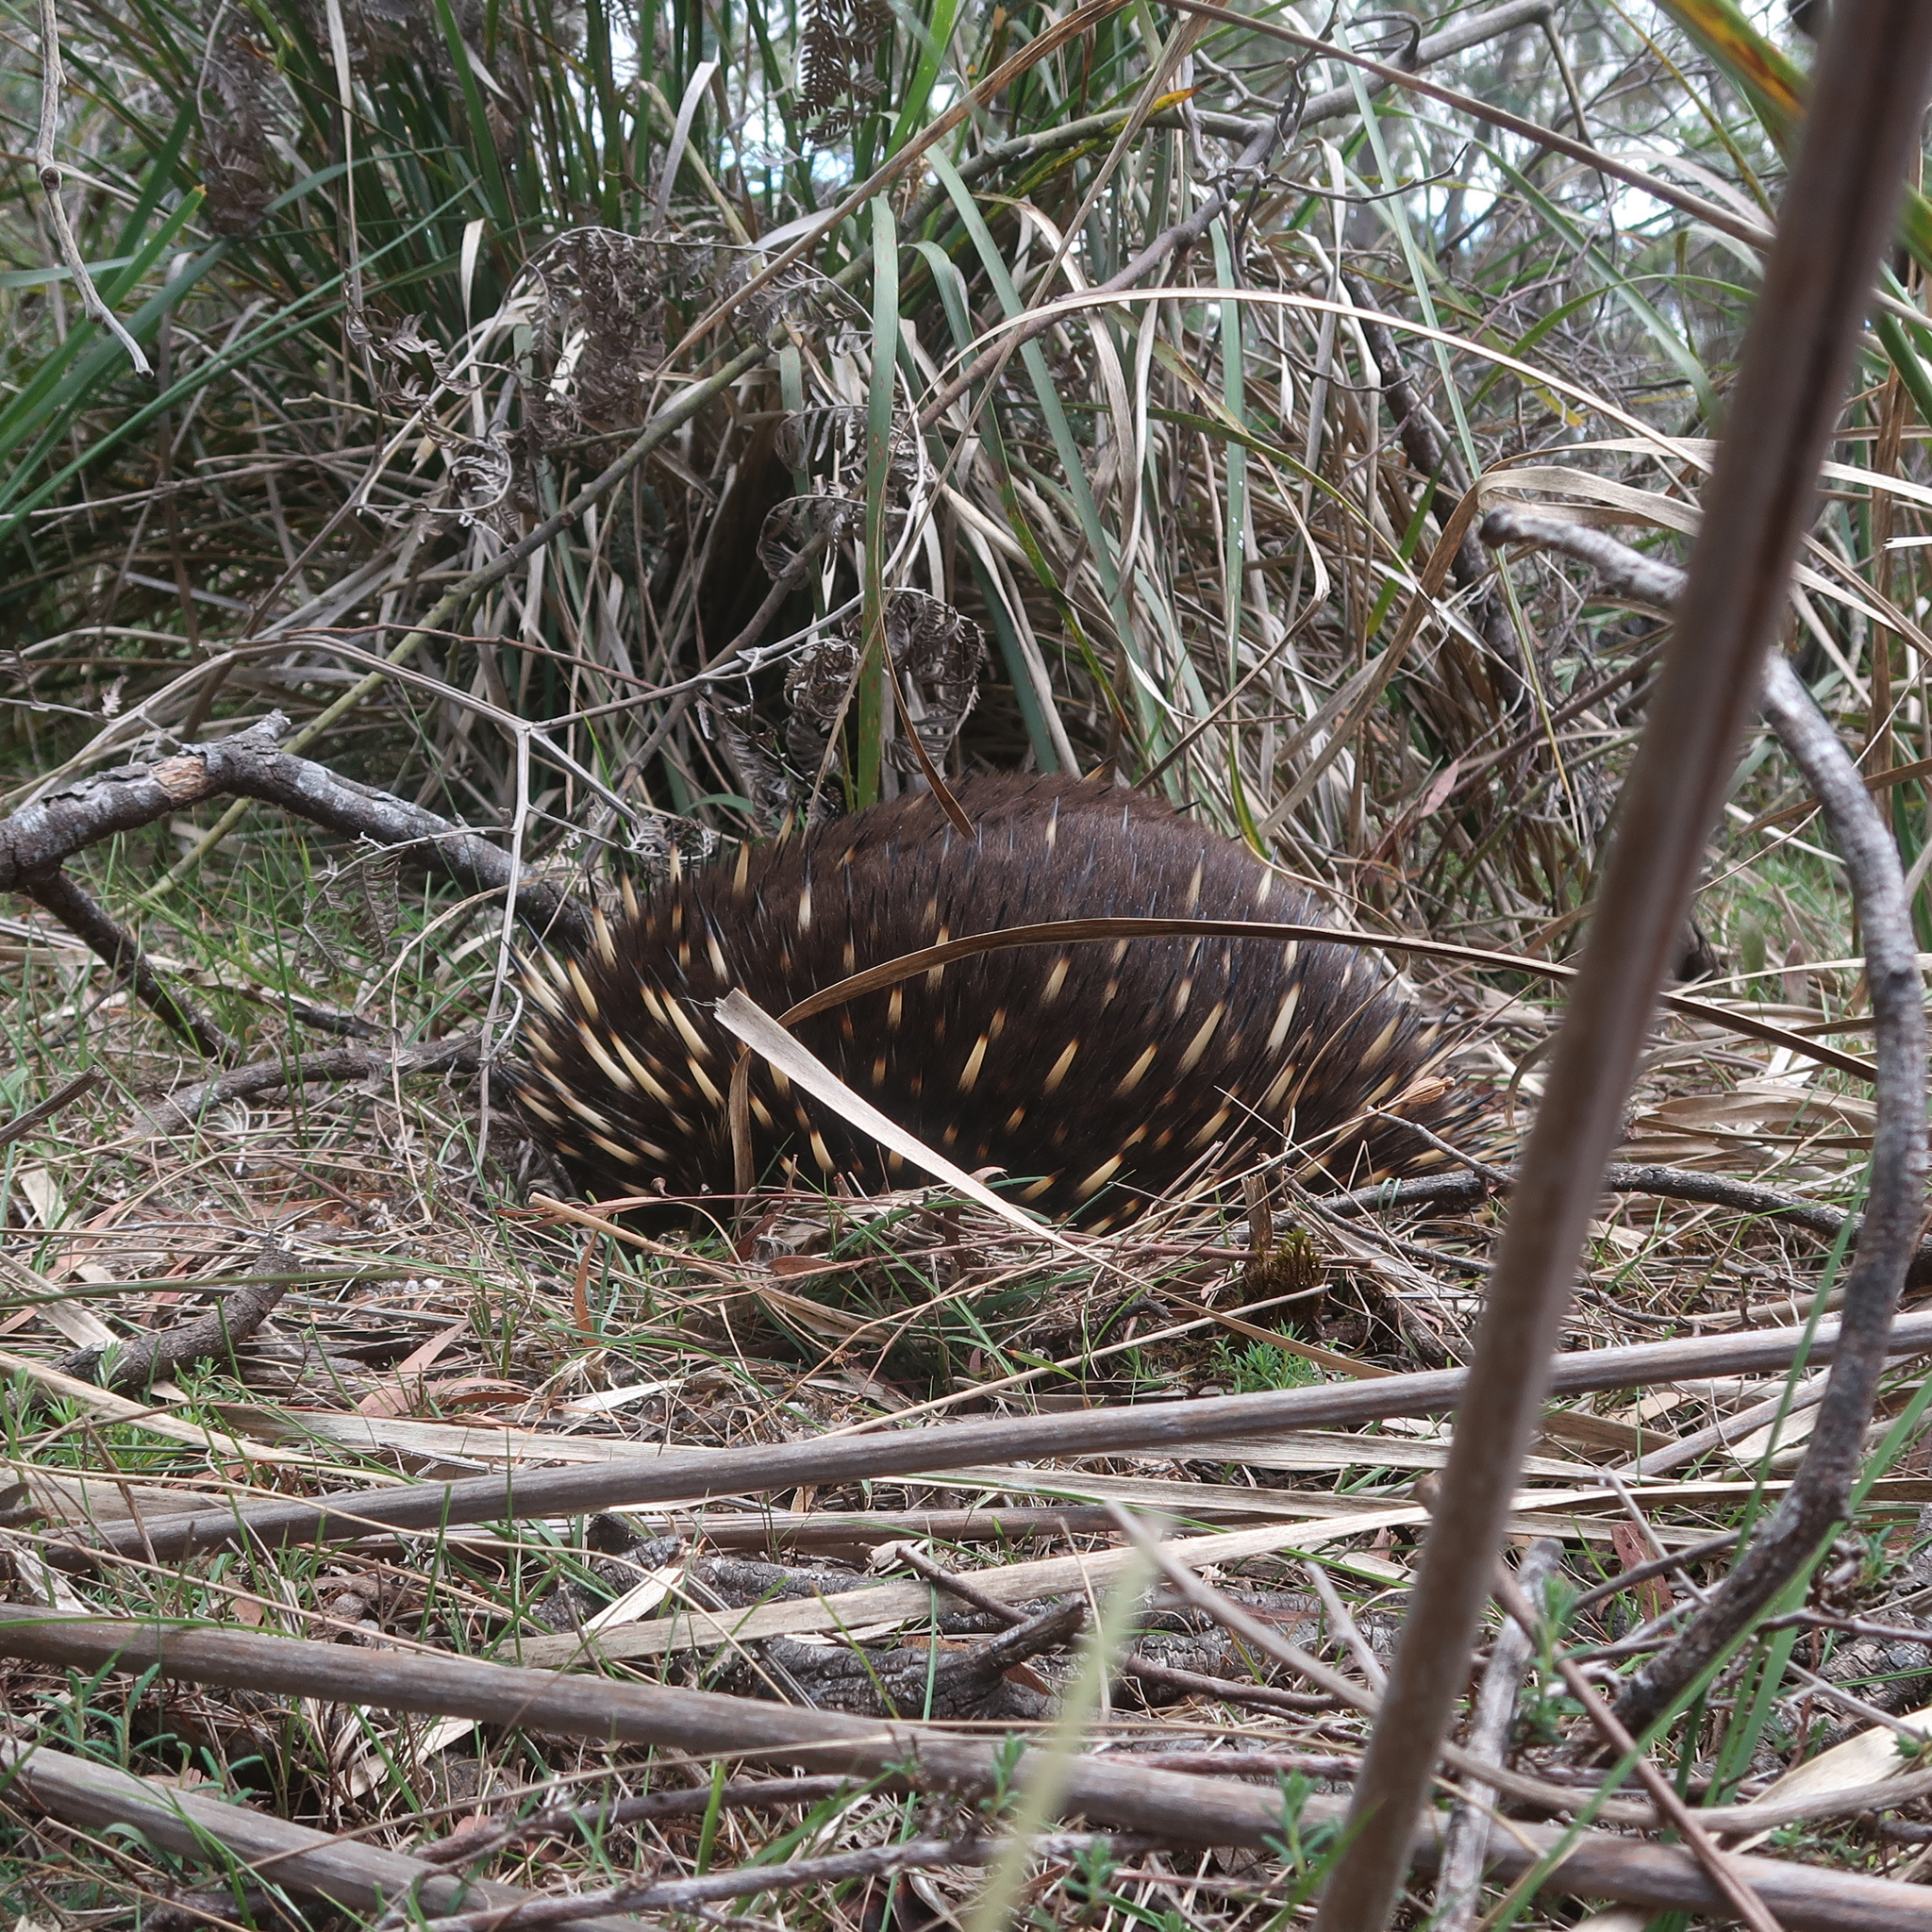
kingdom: Animalia
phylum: Chordata
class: Mammalia
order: Monotremata
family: Tachyglossidae
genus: Tachyglossus
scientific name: Tachyglossus aculeatus
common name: Short-beaked echidna
